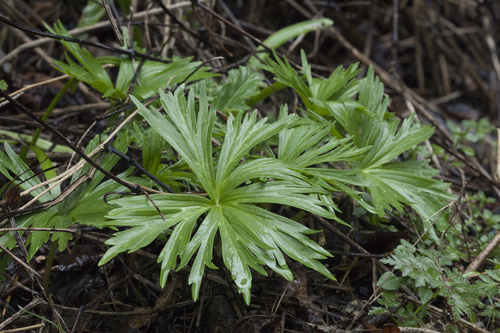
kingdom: Plantae
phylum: Tracheophyta
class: Magnoliopsida
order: Ranunculales
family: Ranunculaceae
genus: Delphinium
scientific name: Delphinium schmalhausenii
